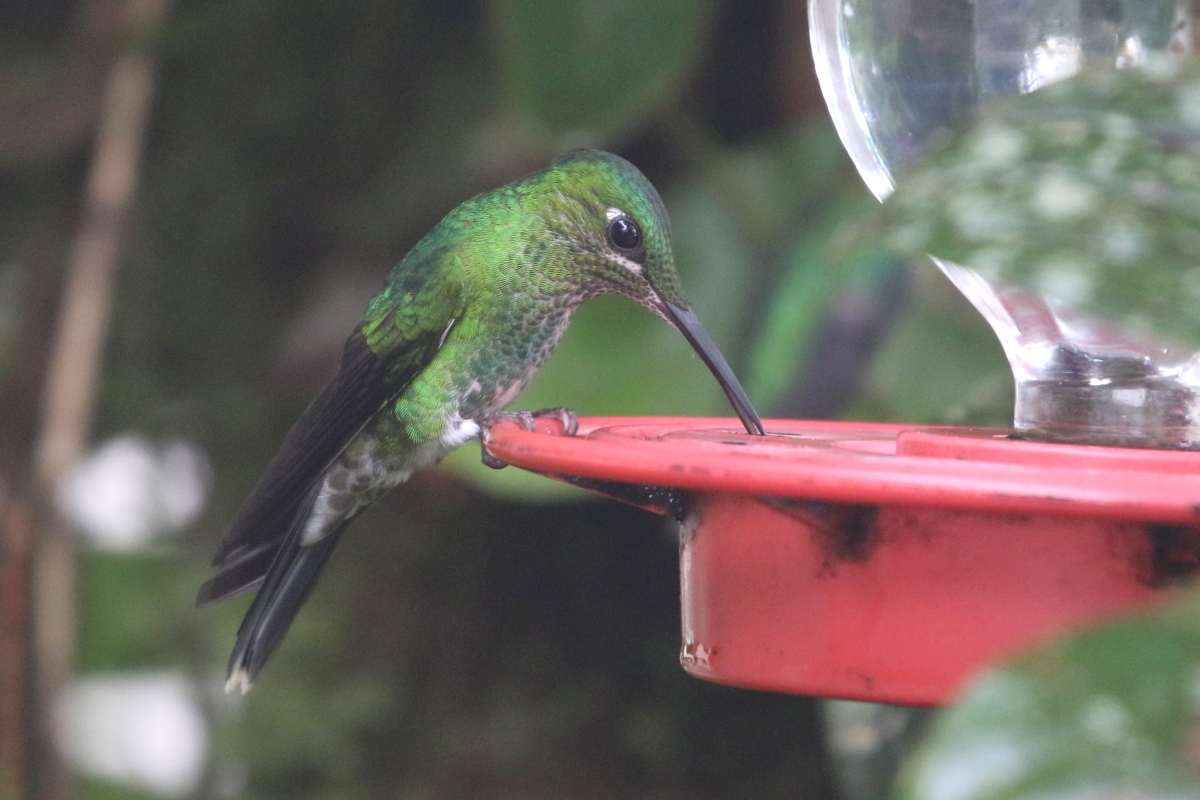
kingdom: Animalia
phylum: Chordata
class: Aves
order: Apodiformes
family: Trochilidae
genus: Heliodoxa
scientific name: Heliodoxa jacula
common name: Green-crowned brilliant
